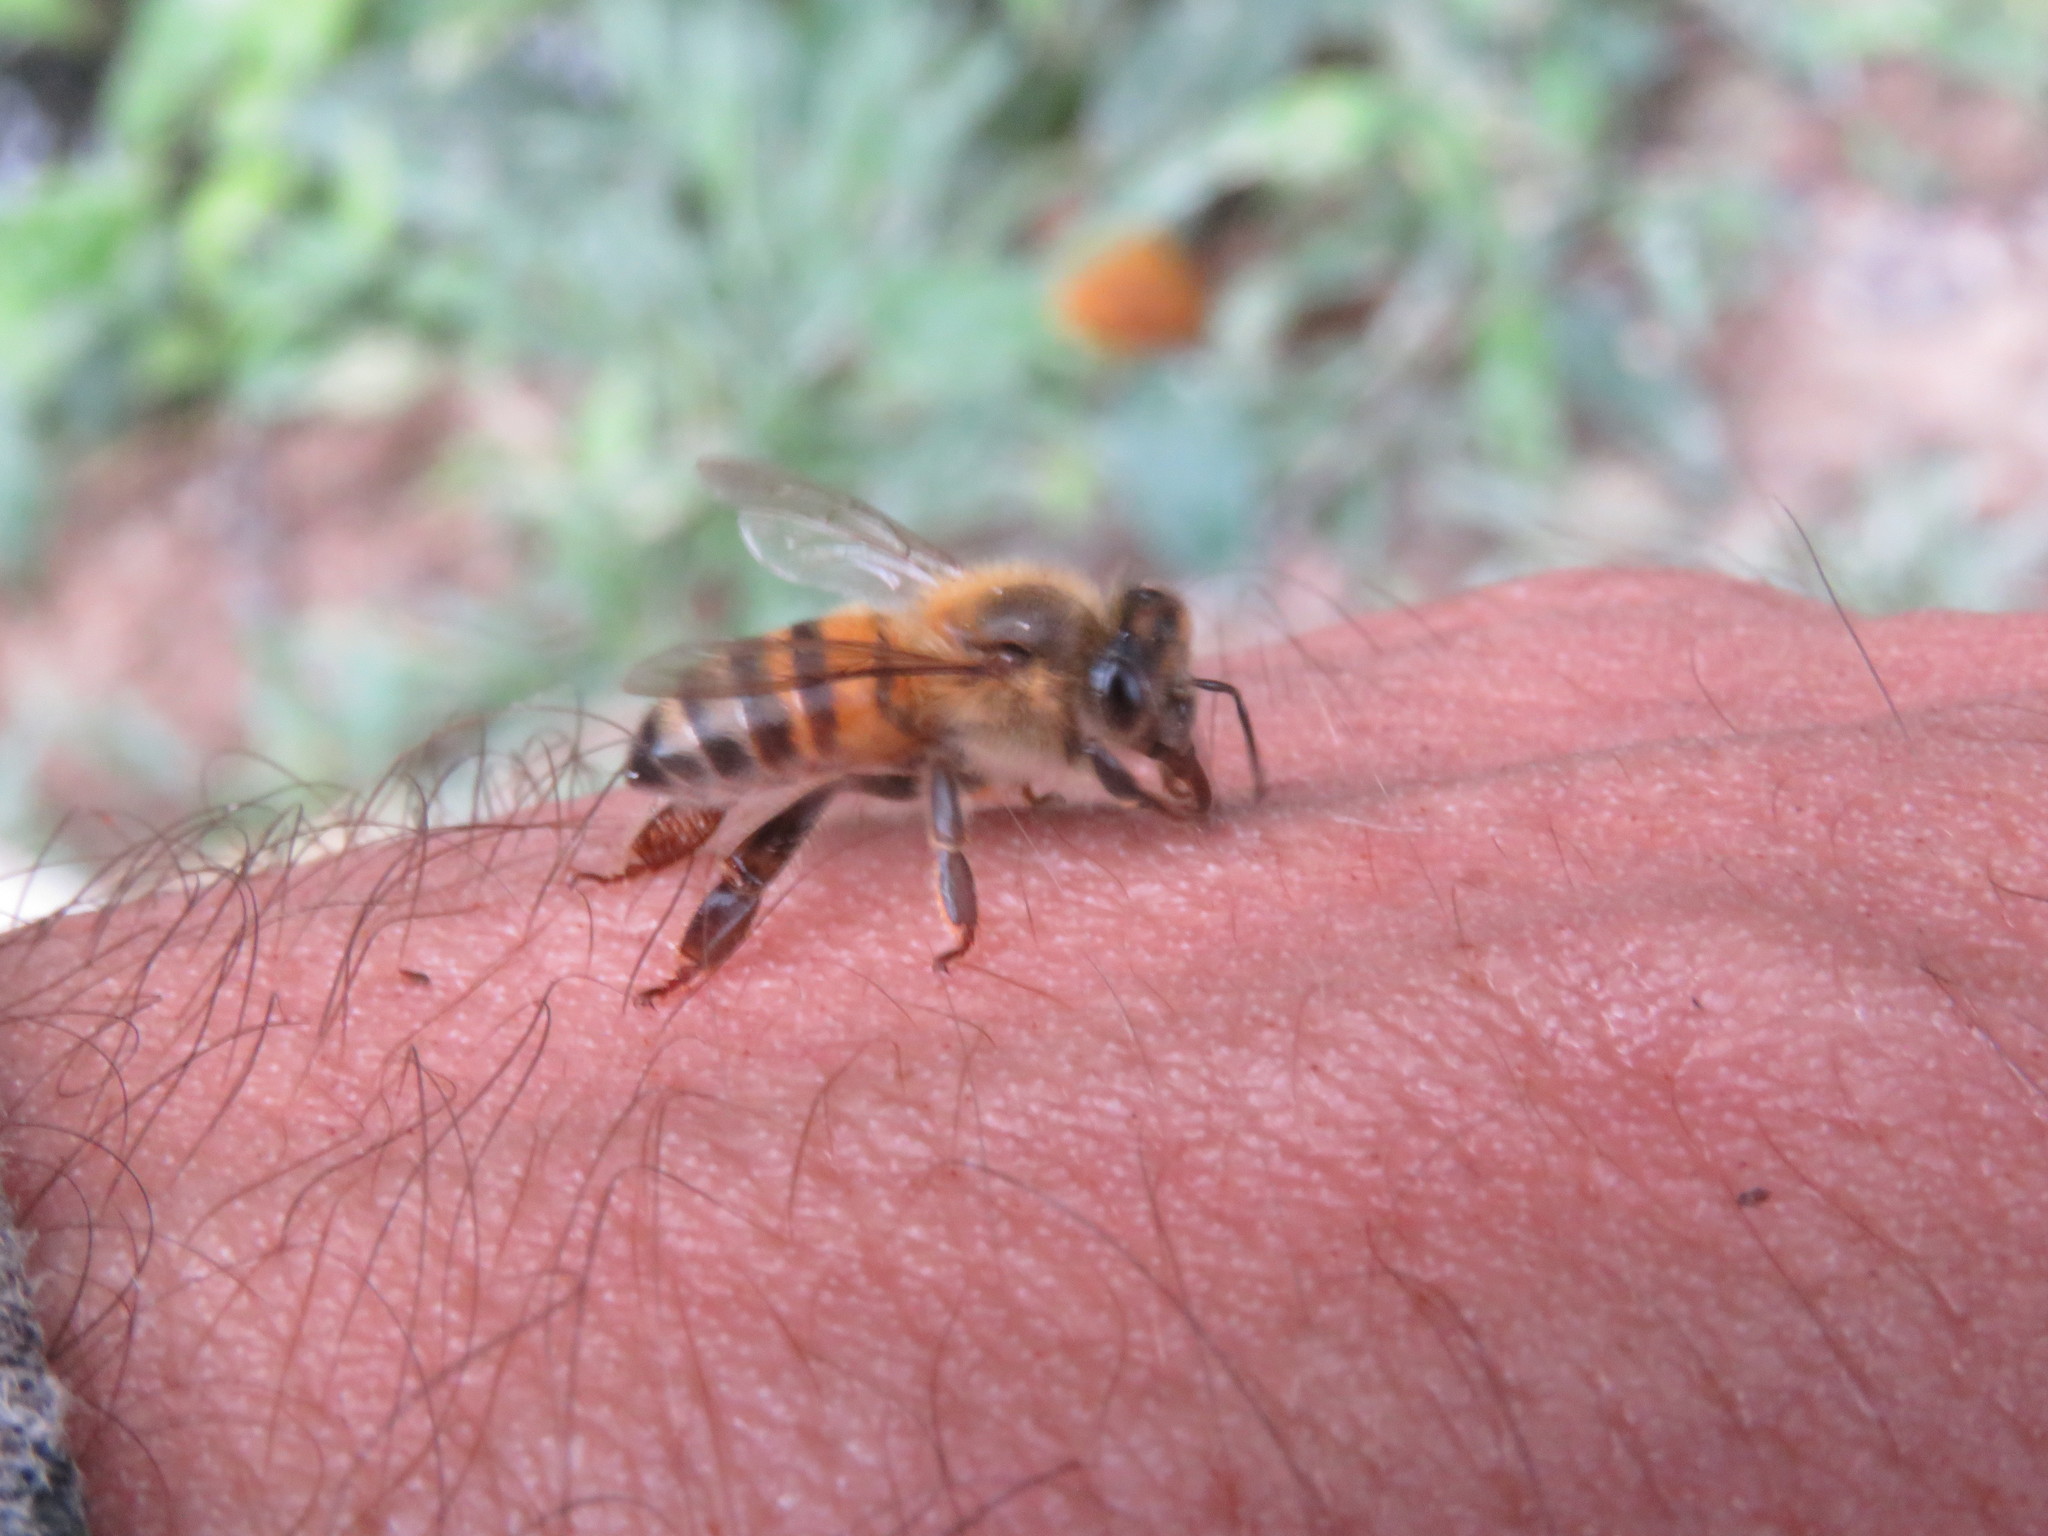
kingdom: Animalia
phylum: Arthropoda
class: Insecta
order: Hymenoptera
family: Apidae
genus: Apis
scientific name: Apis mellifera
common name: Honey bee
